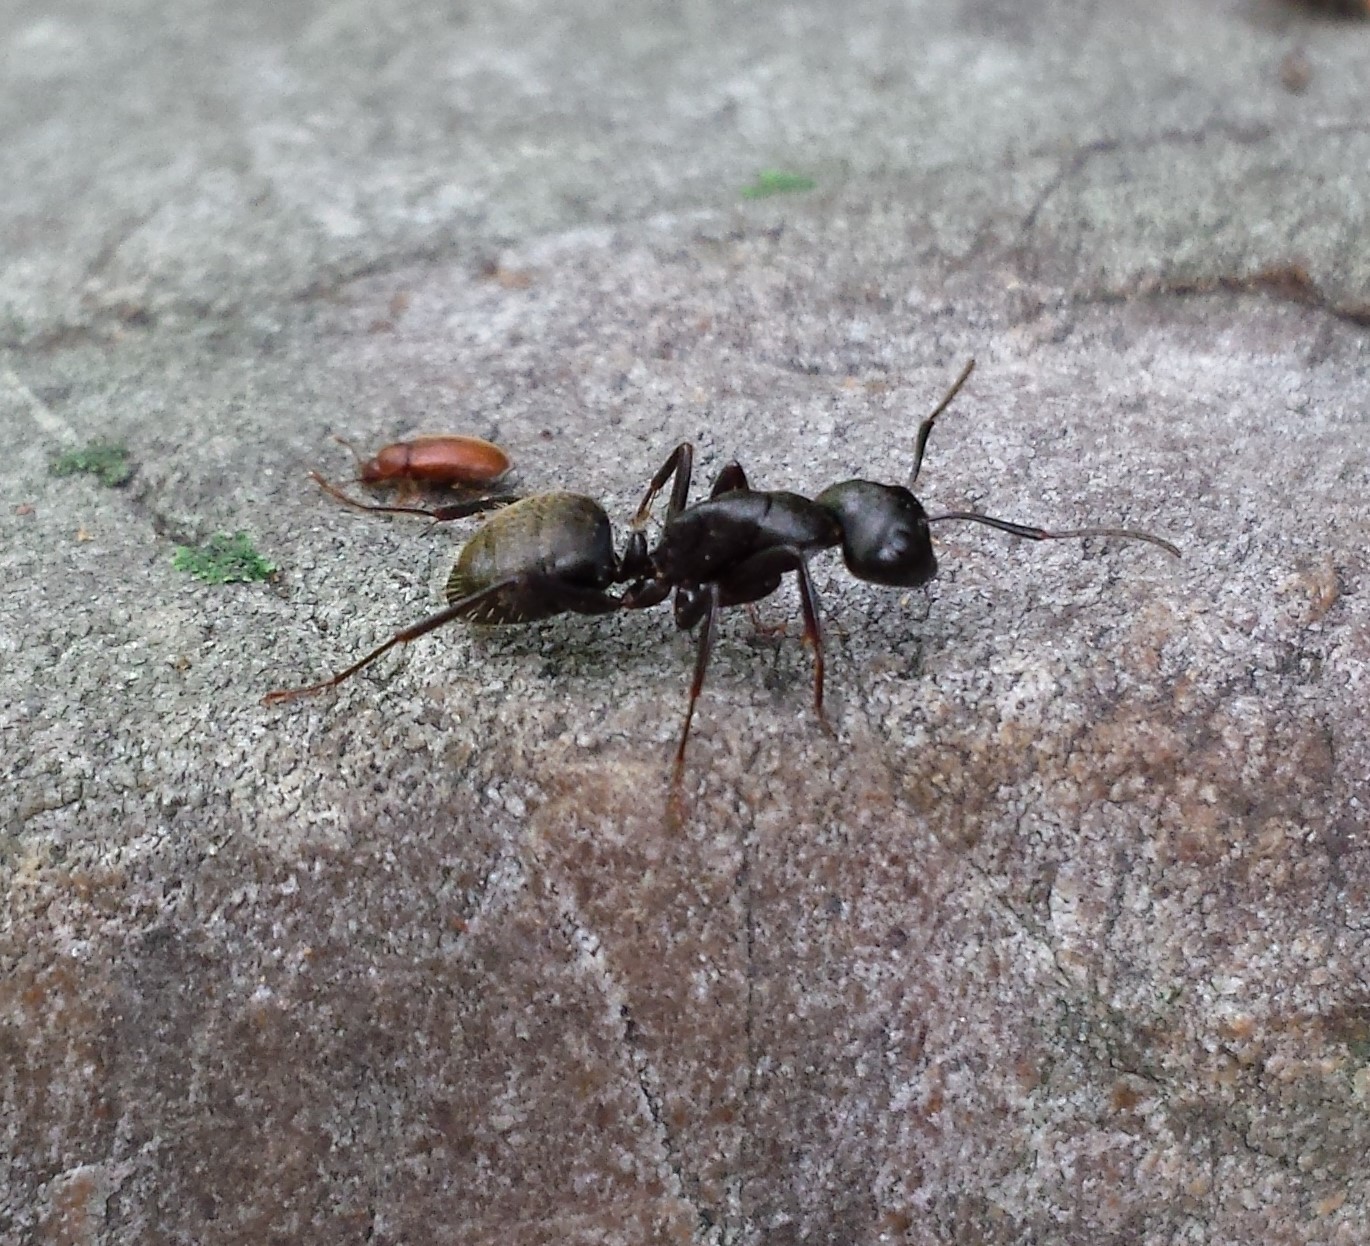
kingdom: Animalia
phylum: Arthropoda
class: Insecta
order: Hymenoptera
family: Formicidae
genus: Camponotus
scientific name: Camponotus pennsylvanicus
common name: Black carpenter ant
